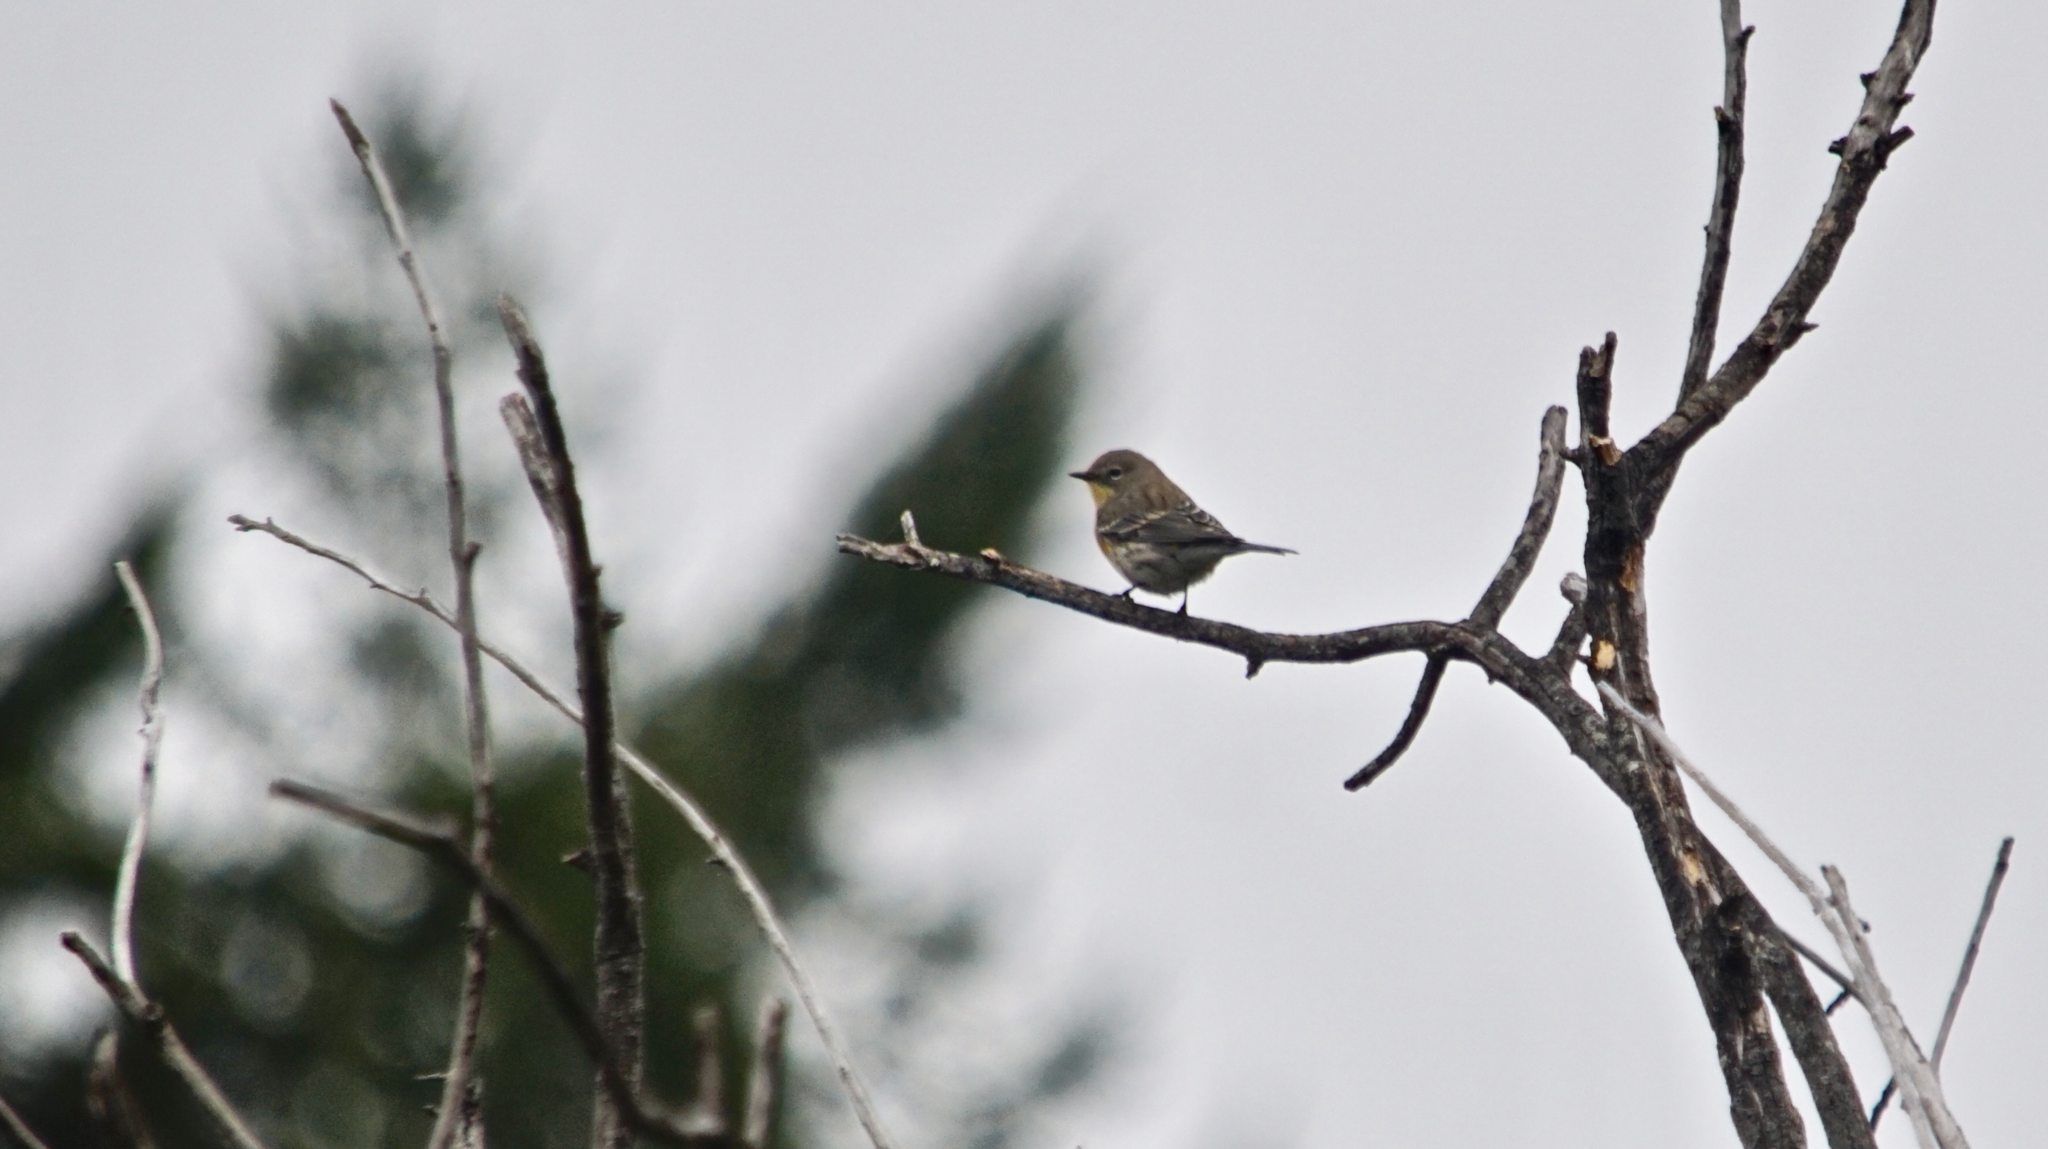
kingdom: Animalia
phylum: Chordata
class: Aves
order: Passeriformes
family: Parulidae
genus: Setophaga
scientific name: Setophaga coronata
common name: Myrtle warbler
